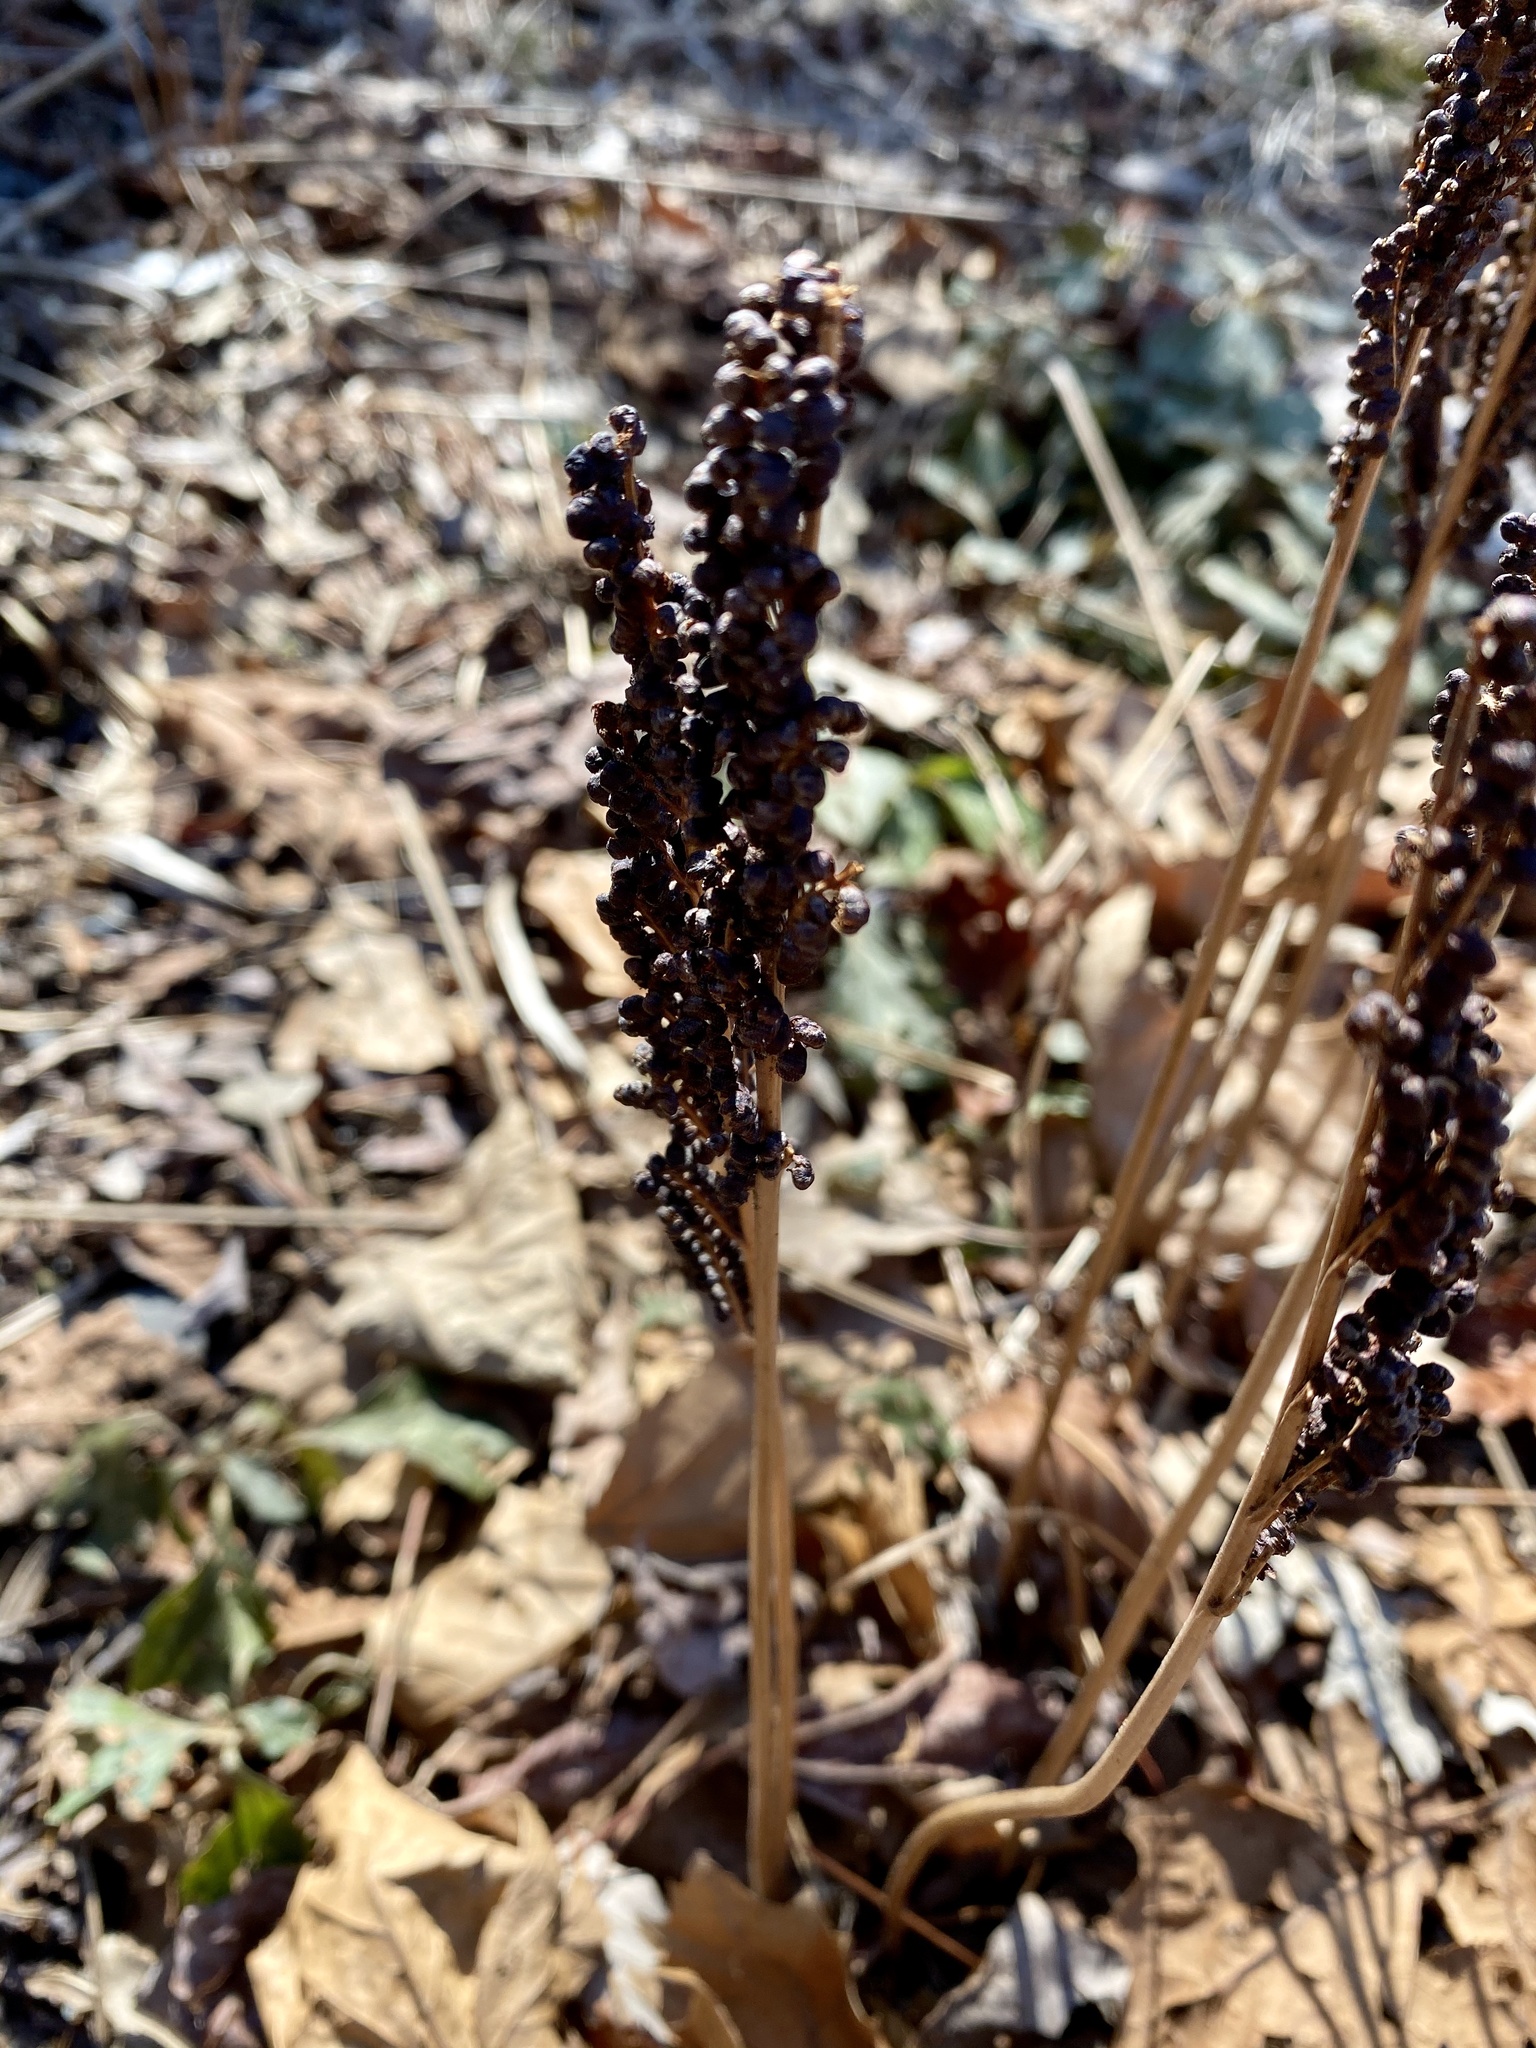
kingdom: Plantae
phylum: Tracheophyta
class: Polypodiopsida
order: Polypodiales
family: Onocleaceae
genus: Onoclea
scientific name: Onoclea sensibilis
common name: Sensitive fern
